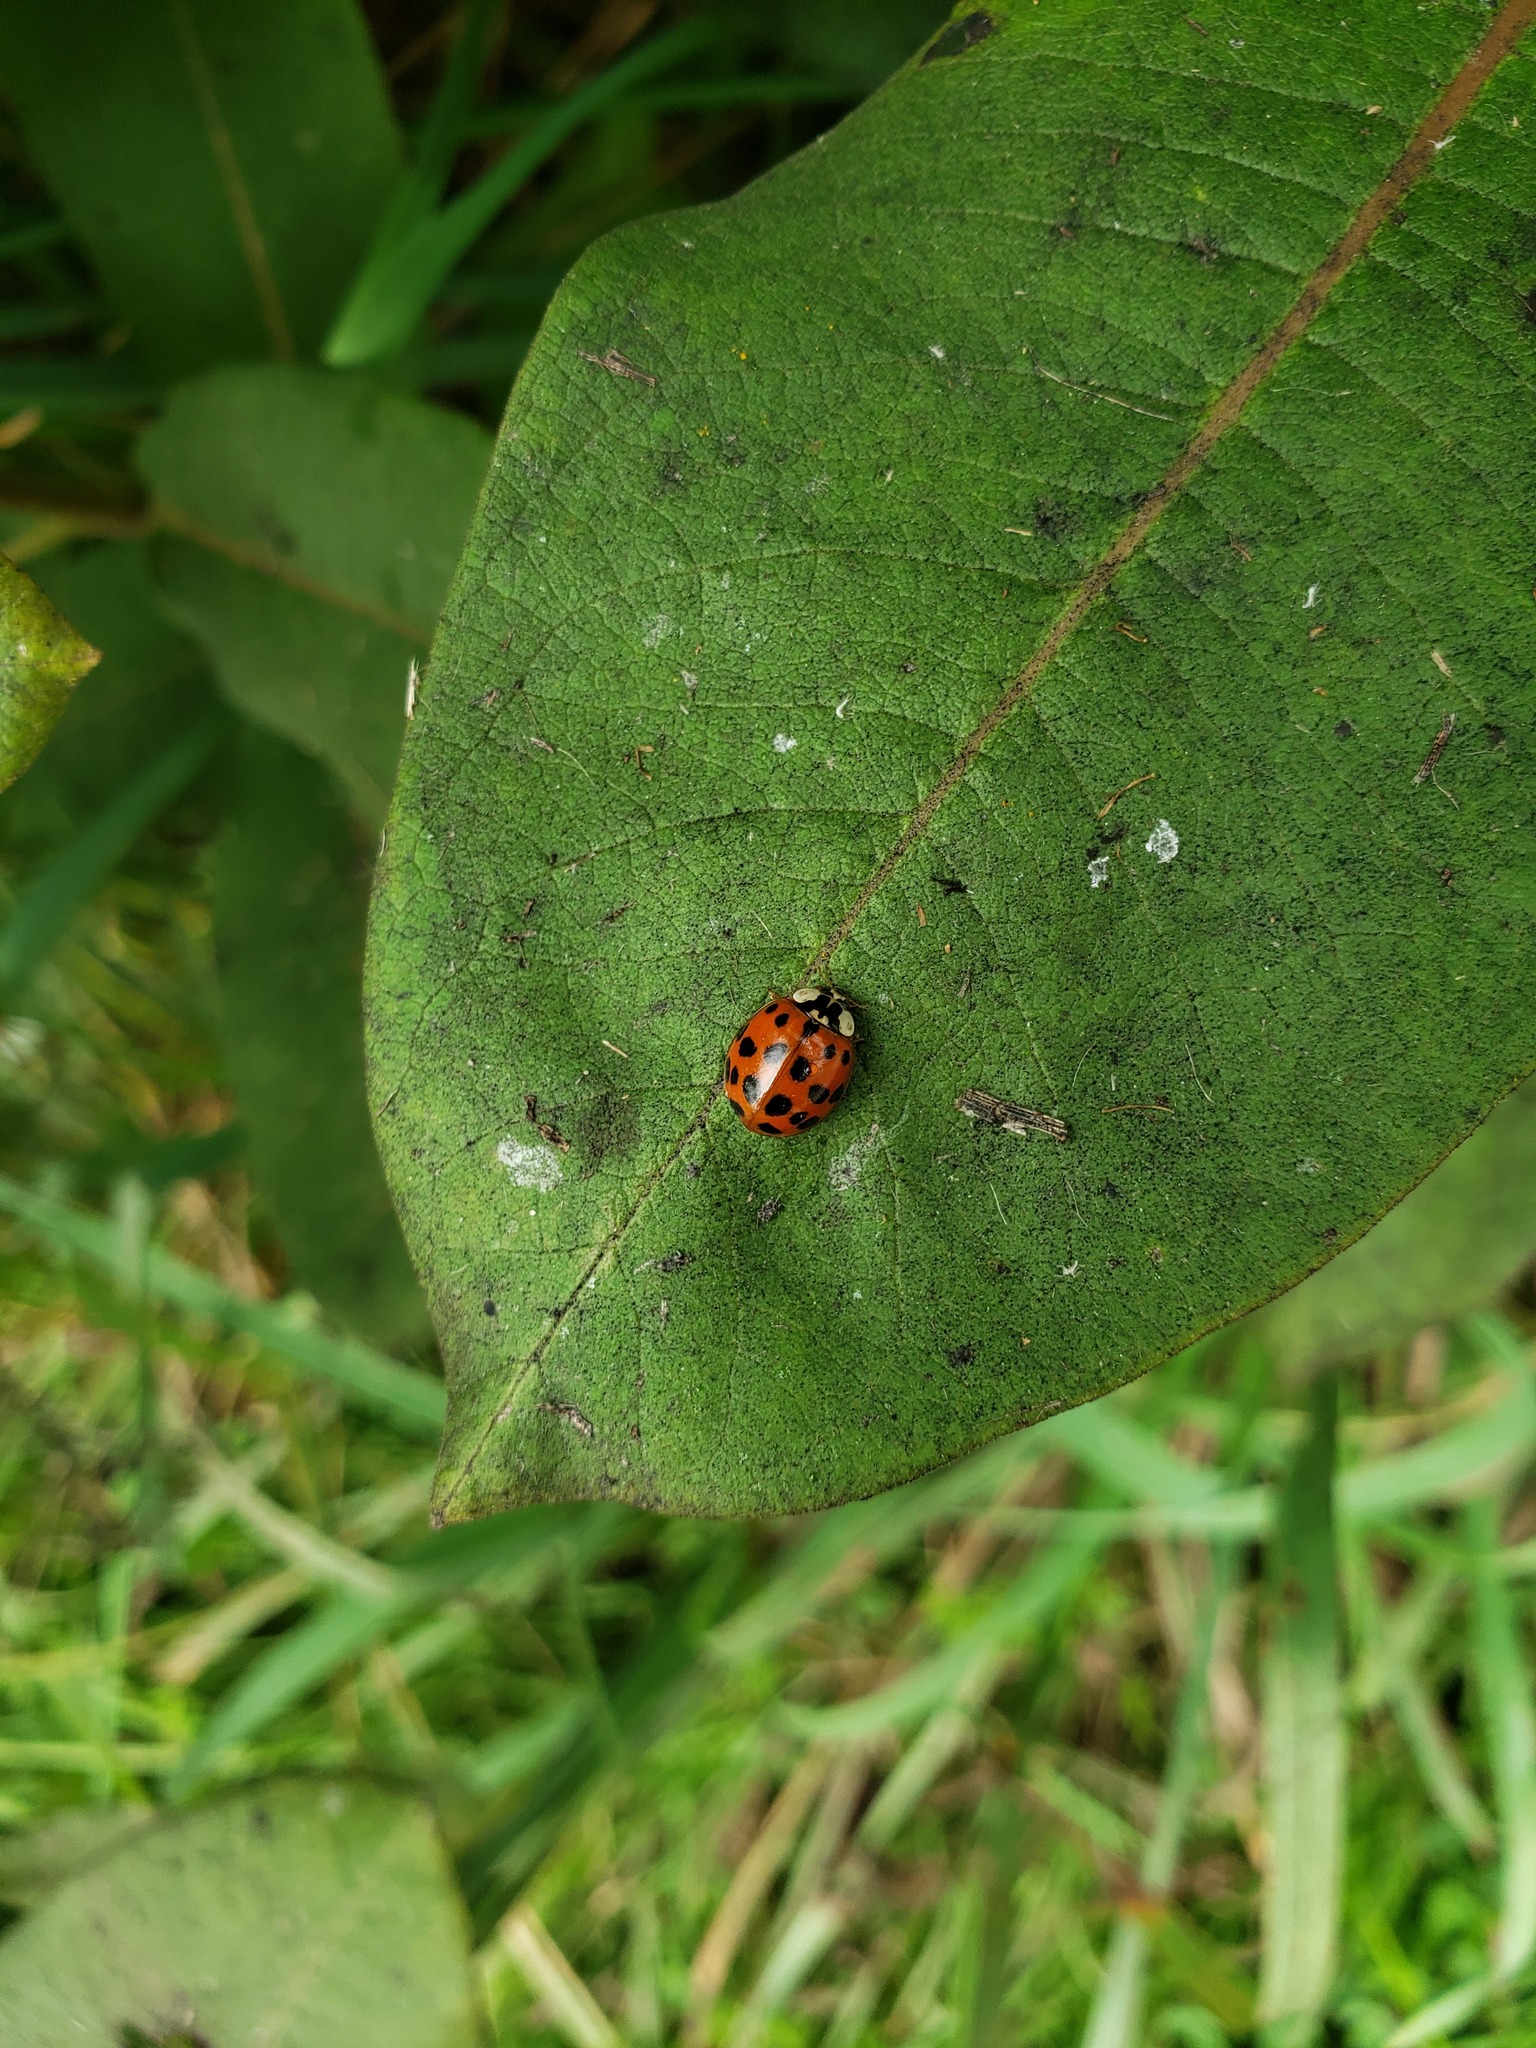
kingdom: Animalia
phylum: Arthropoda
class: Insecta
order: Coleoptera
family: Coccinellidae
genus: Harmonia
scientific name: Harmonia axyridis
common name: Harlequin ladybird
